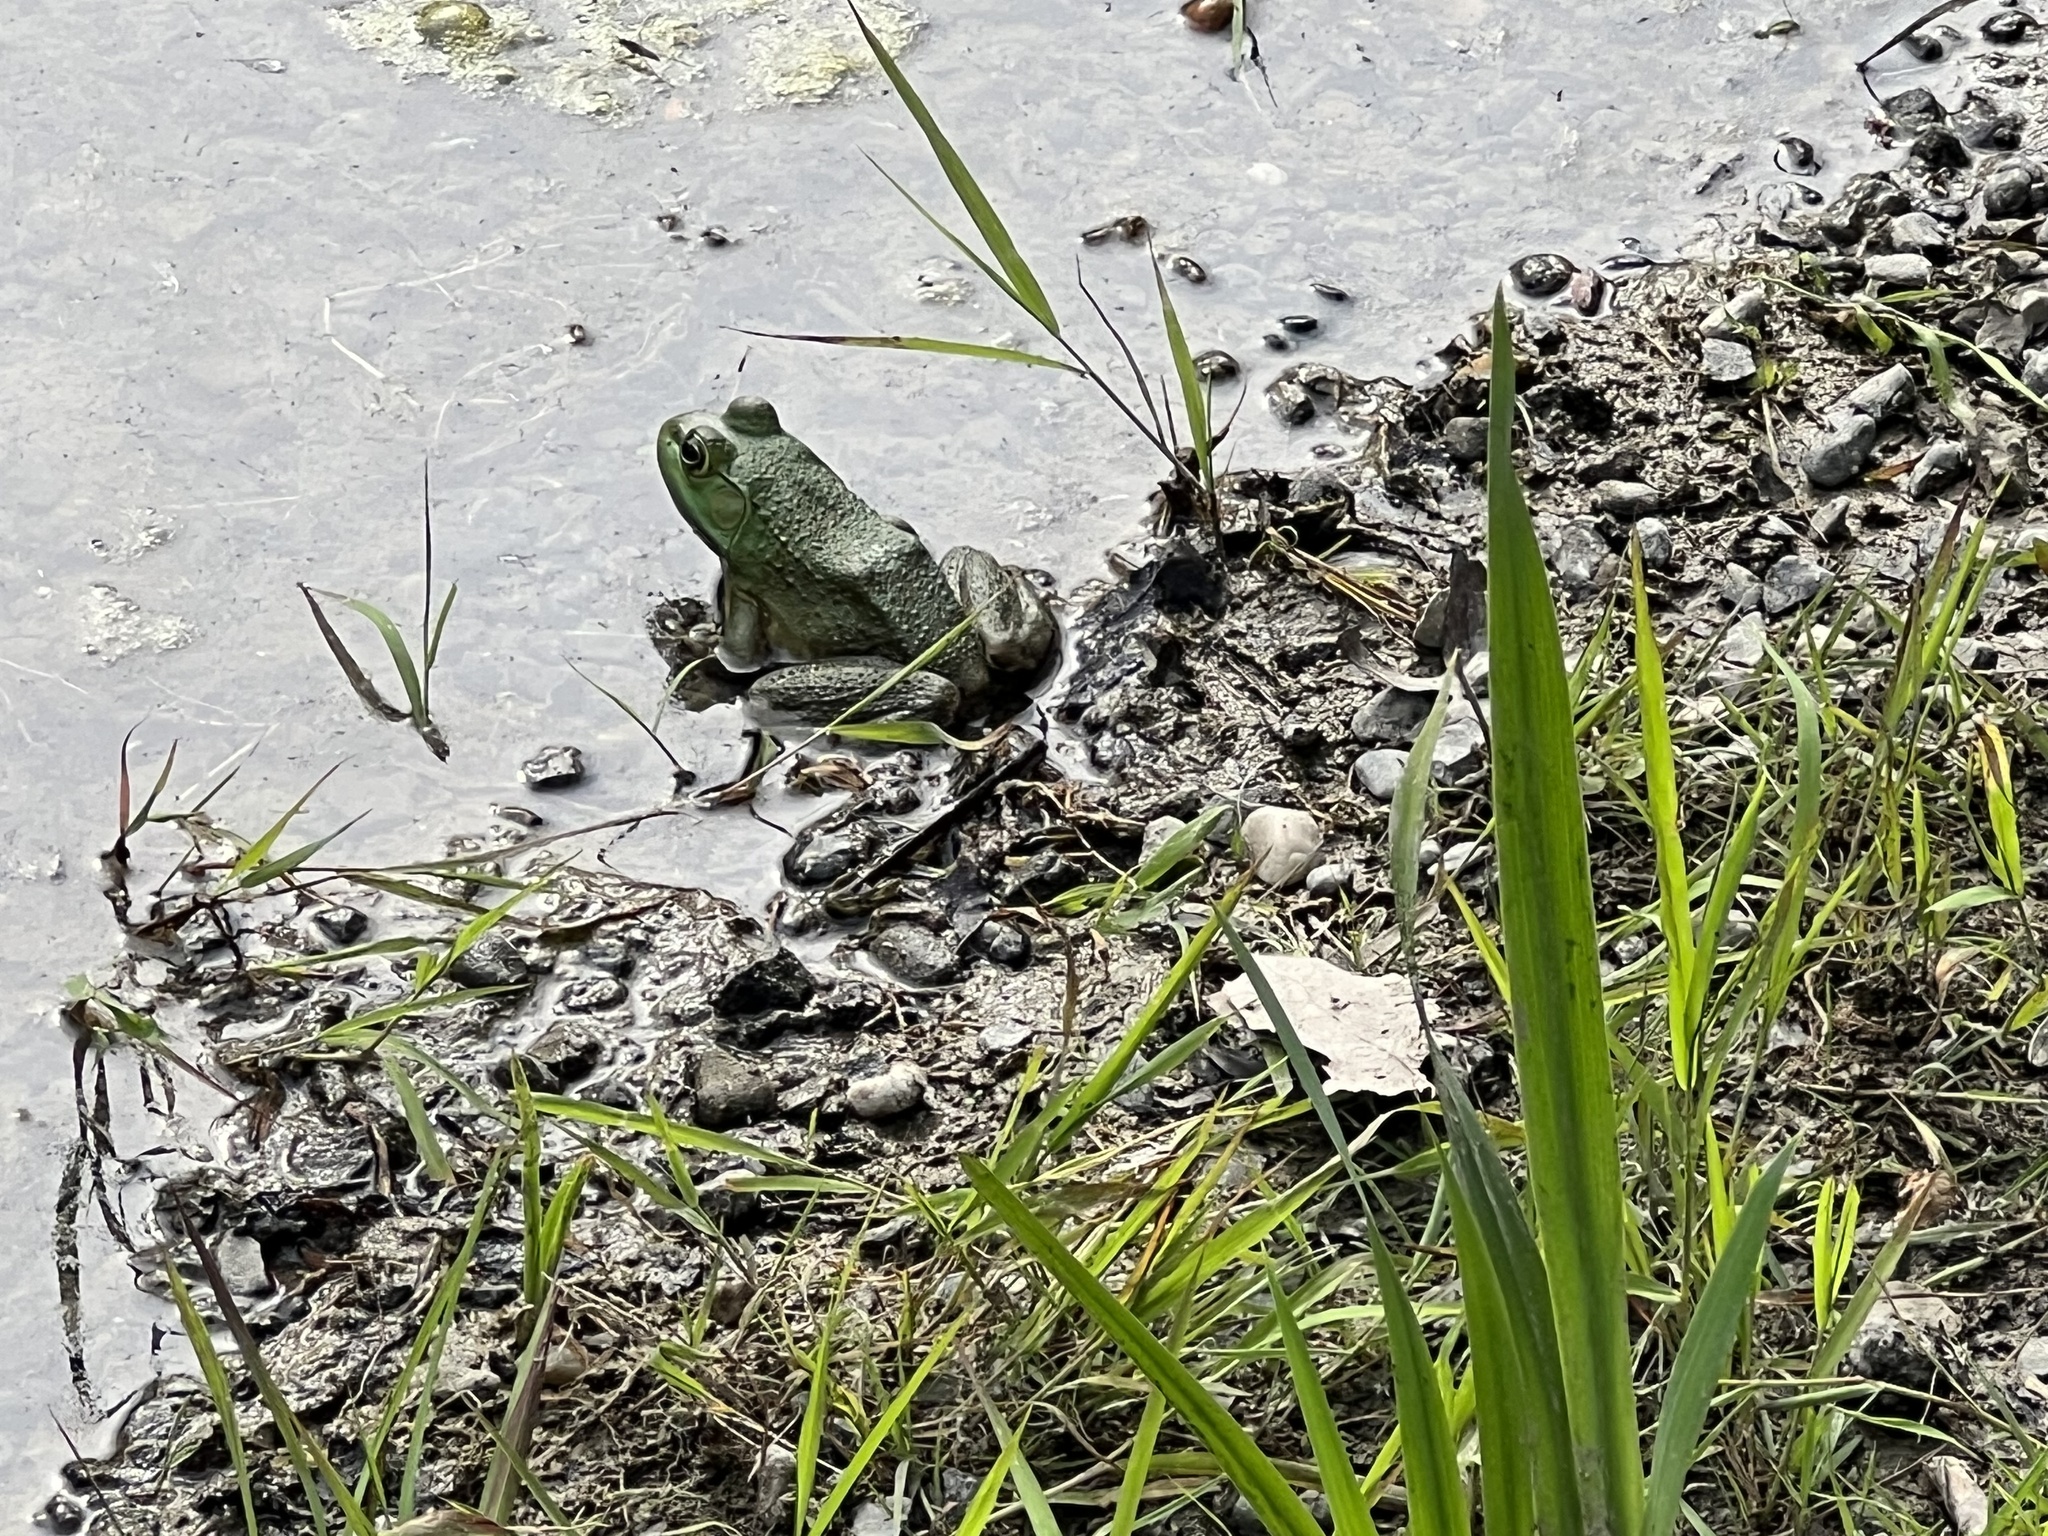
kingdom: Animalia
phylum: Chordata
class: Amphibia
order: Anura
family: Ranidae
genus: Lithobates
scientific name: Lithobates catesbeianus
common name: American bullfrog
